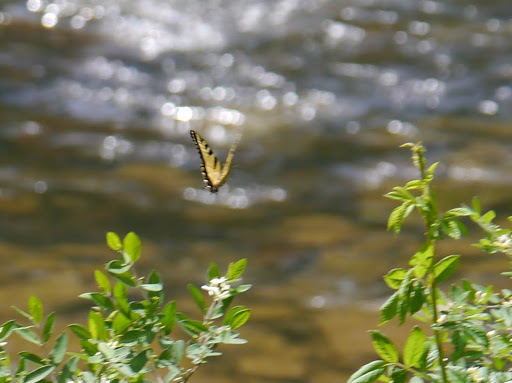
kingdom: Animalia
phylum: Arthropoda
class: Insecta
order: Lepidoptera
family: Papilionidae
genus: Papilio
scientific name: Papilio glaucus
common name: Tiger swallowtail
